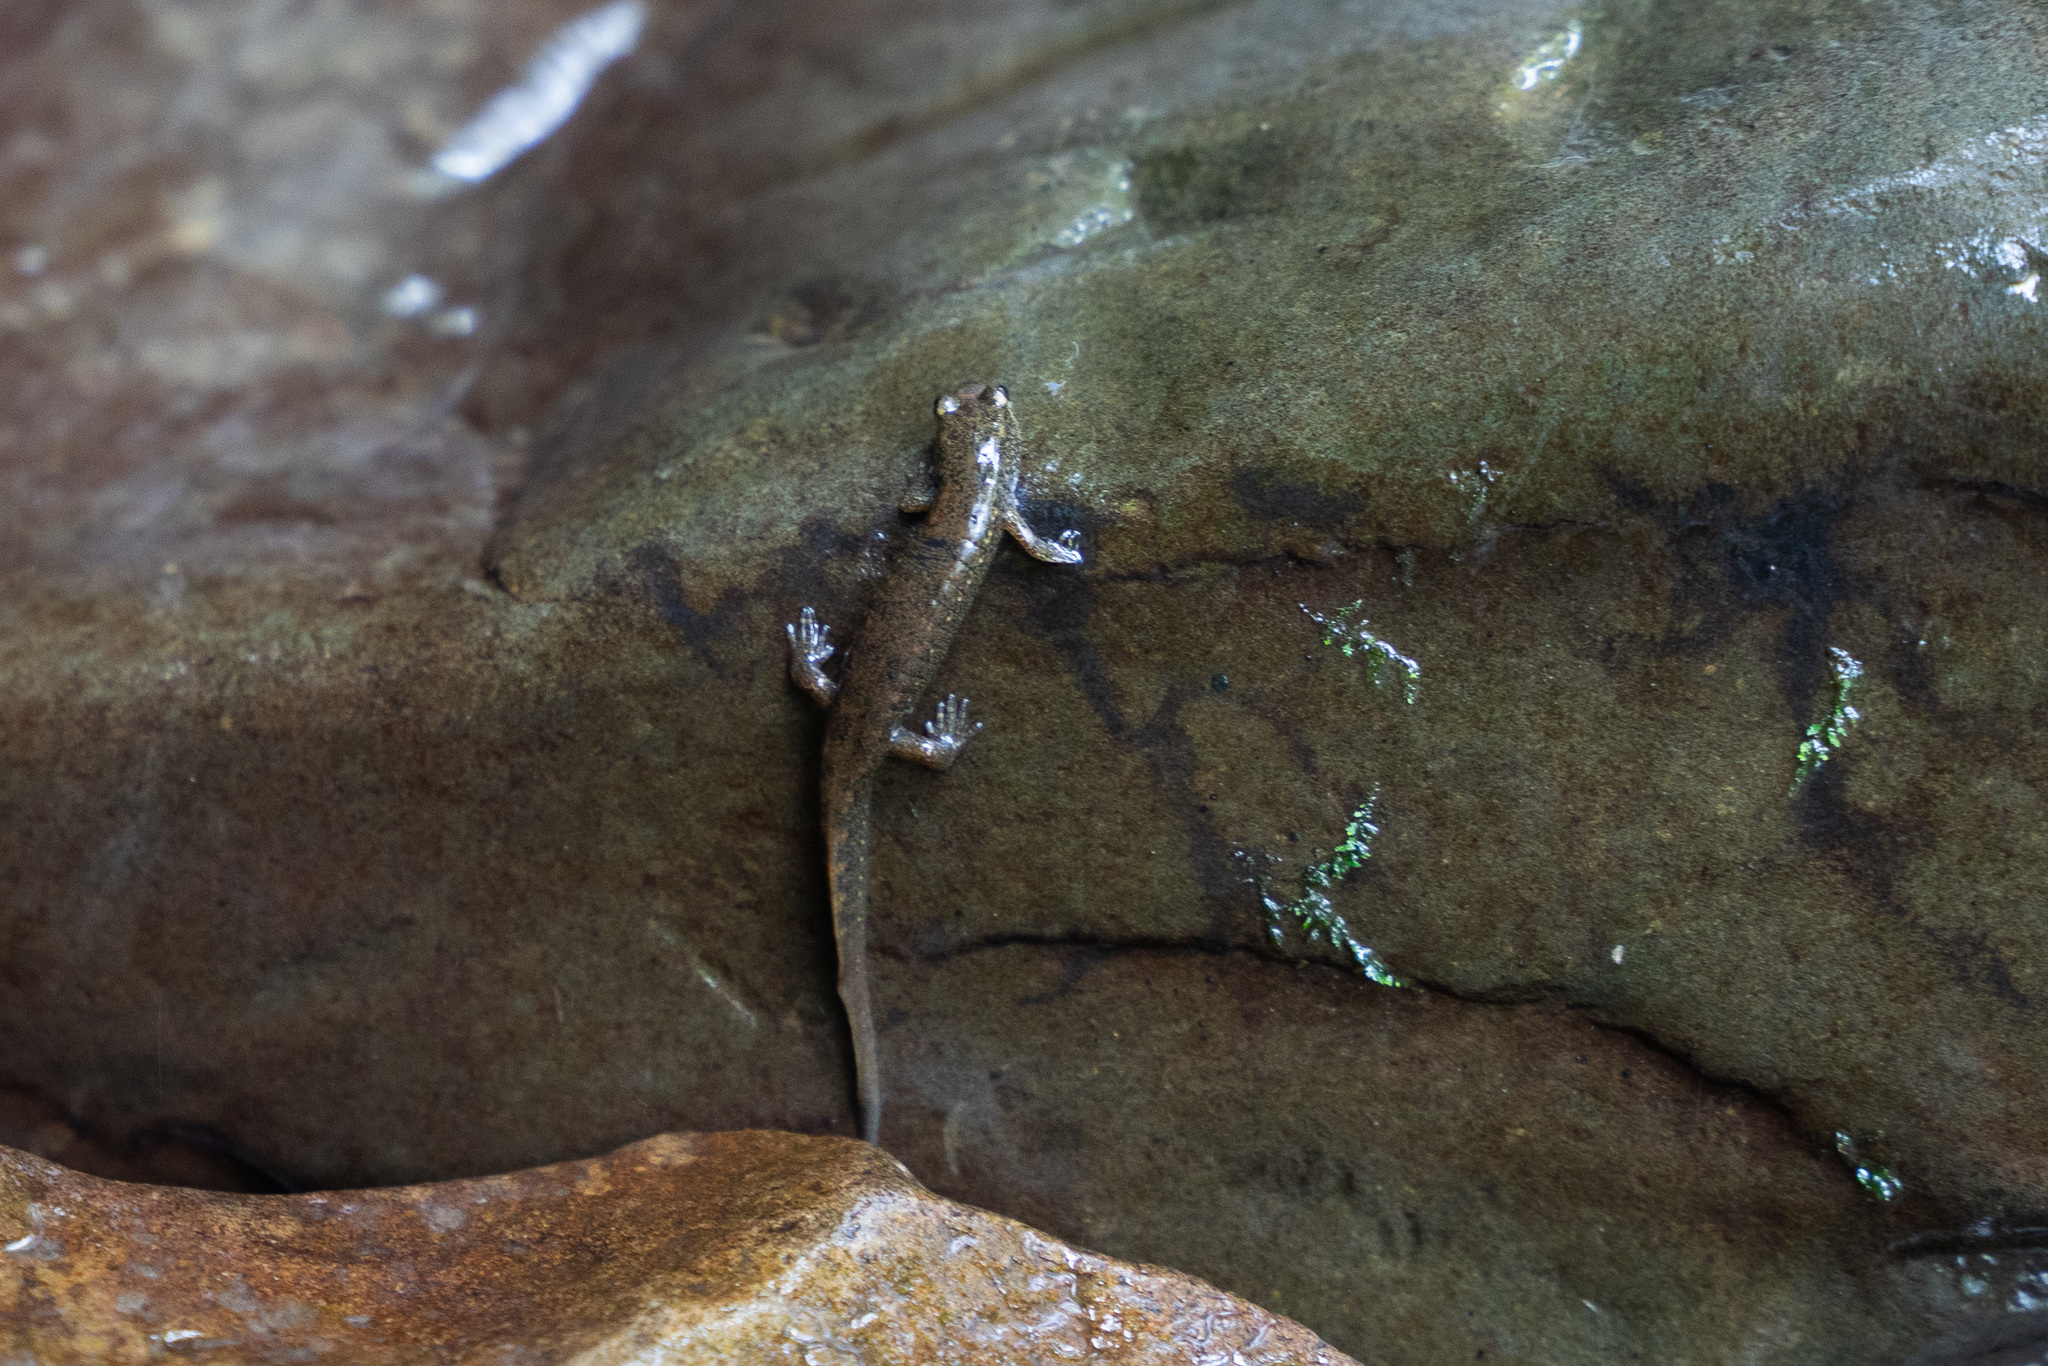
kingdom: Animalia
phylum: Chordata
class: Amphibia
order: Caudata
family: Plethodontidae
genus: Desmognathus
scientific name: Desmognathus
